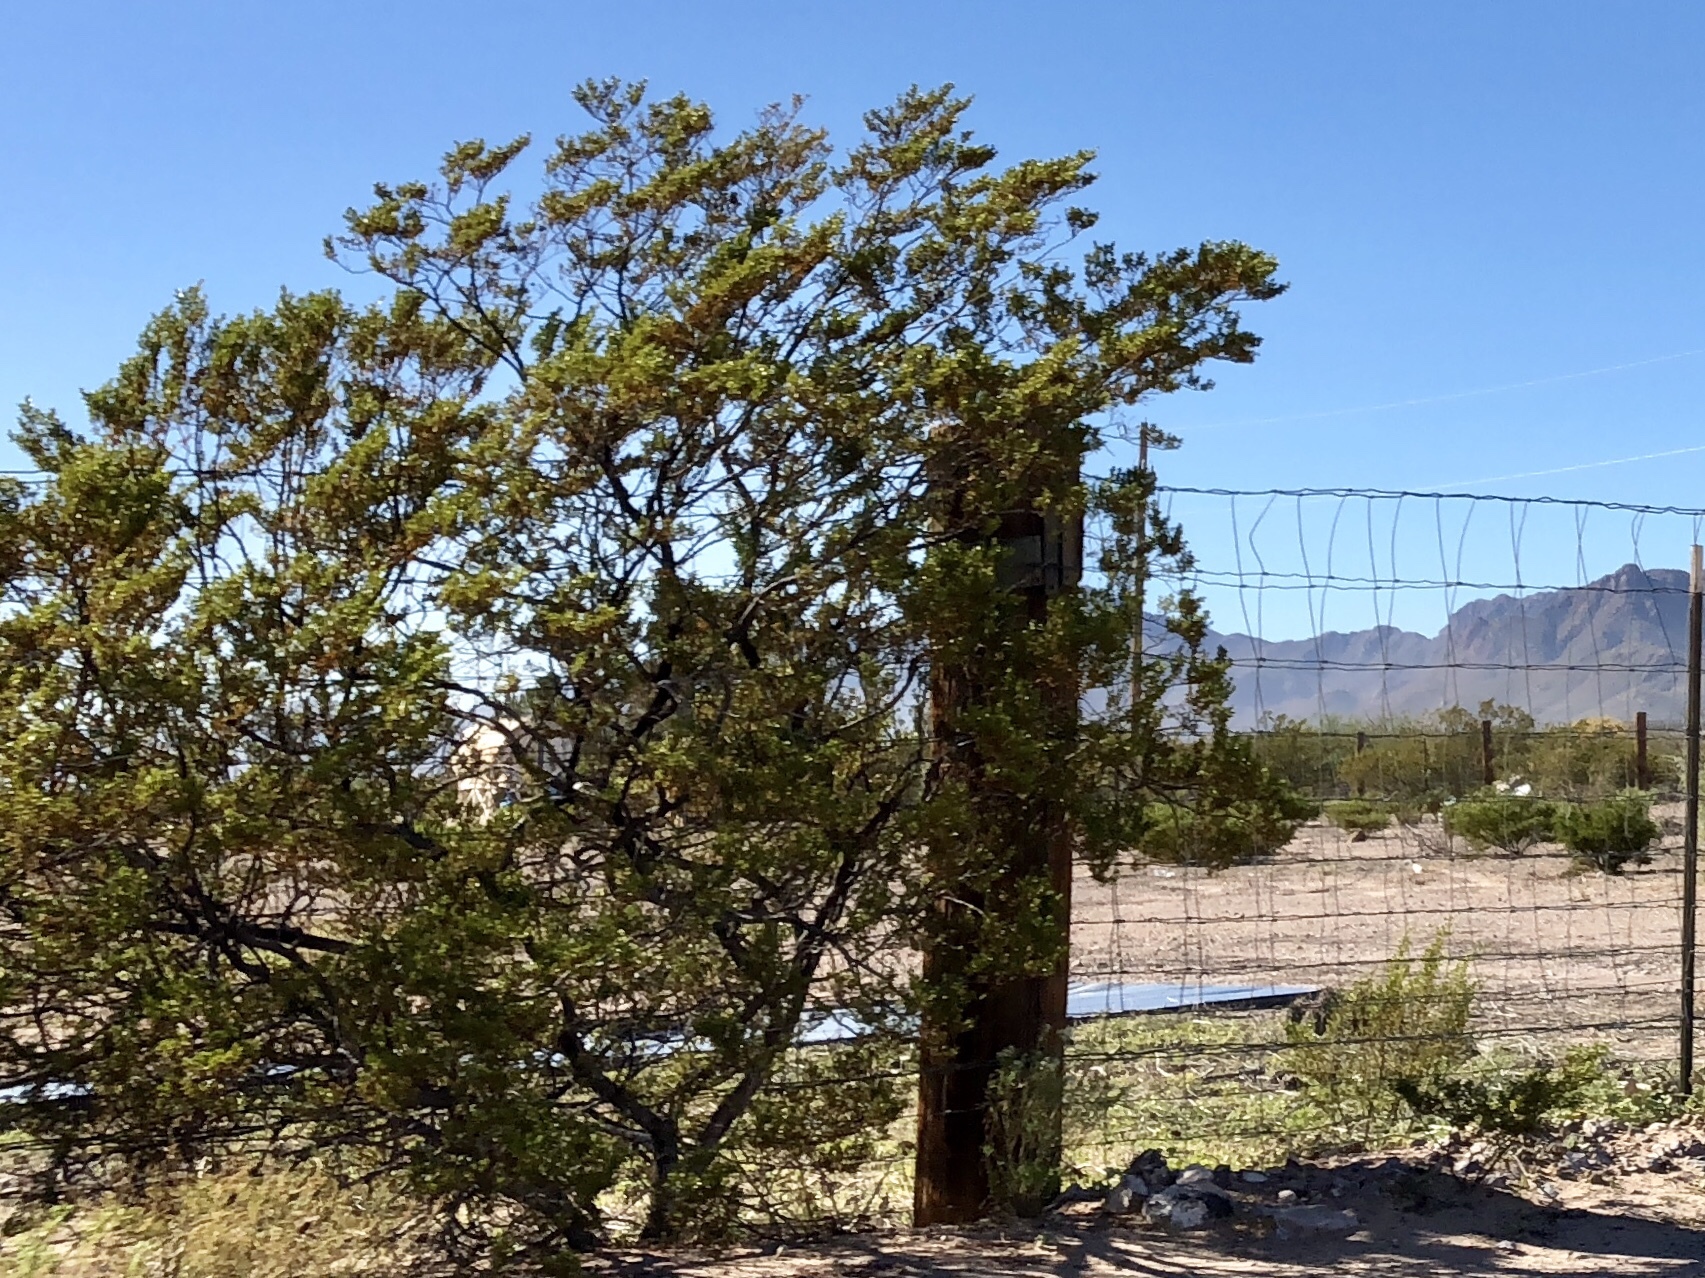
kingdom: Plantae
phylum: Tracheophyta
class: Magnoliopsida
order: Zygophyllales
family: Zygophyllaceae
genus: Larrea
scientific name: Larrea tridentata
